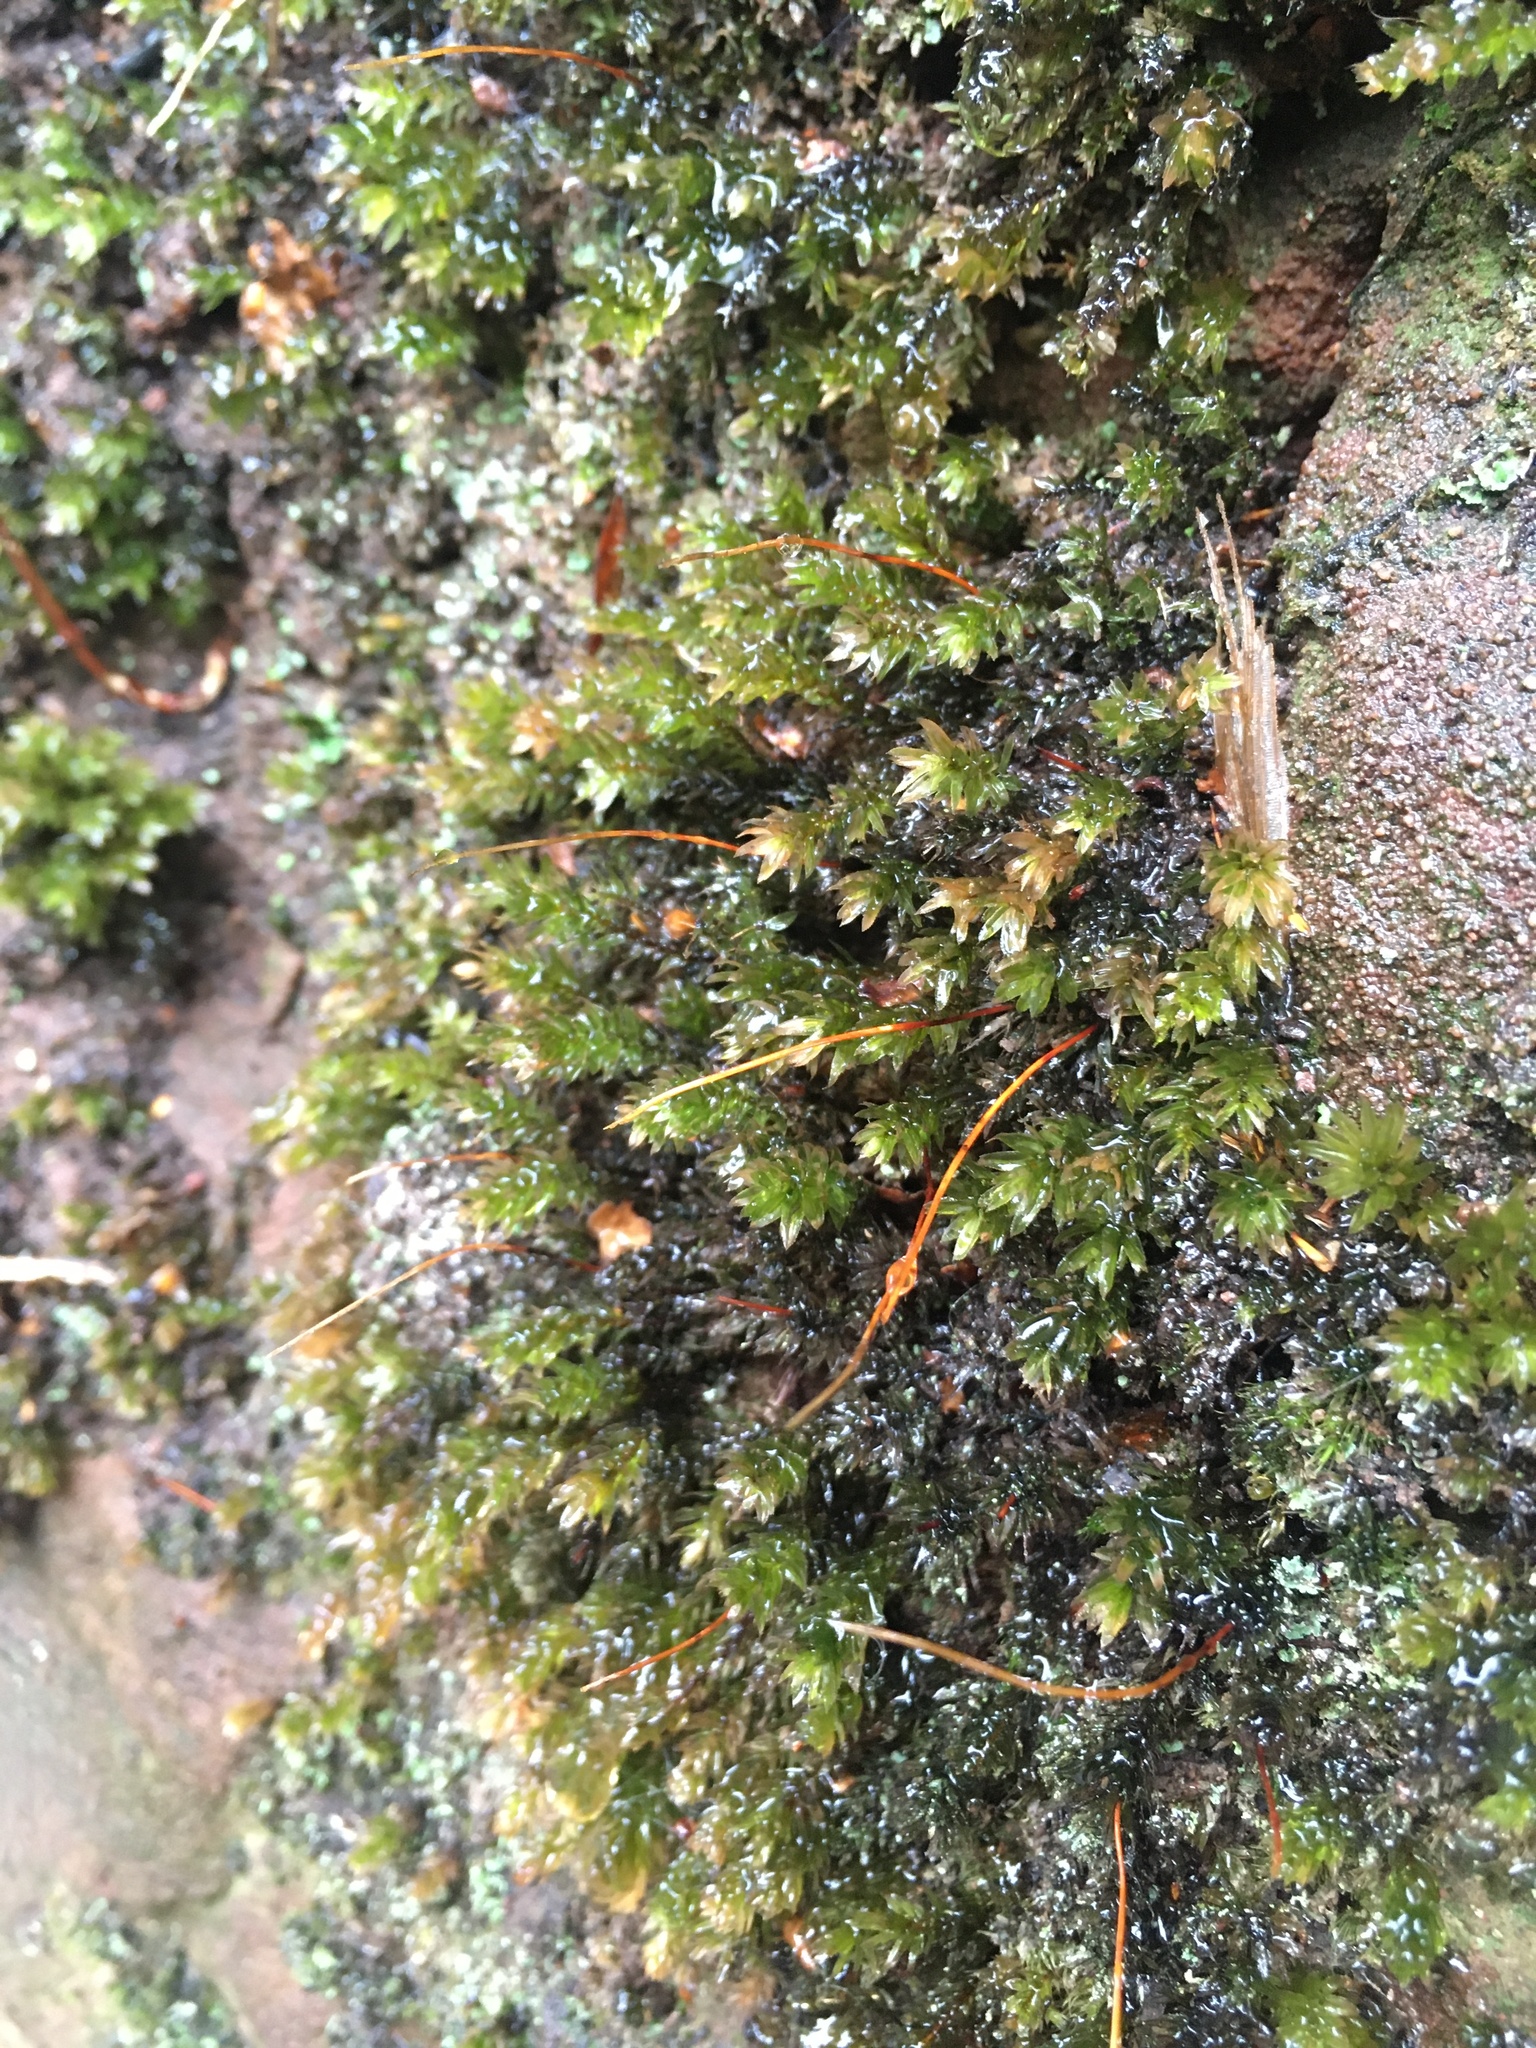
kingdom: Plantae
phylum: Bryophyta
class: Bryopsida
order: Bryales
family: Mniaceae
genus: Mnium
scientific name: Mnium hornum
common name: Swan's-neck leafy moss
